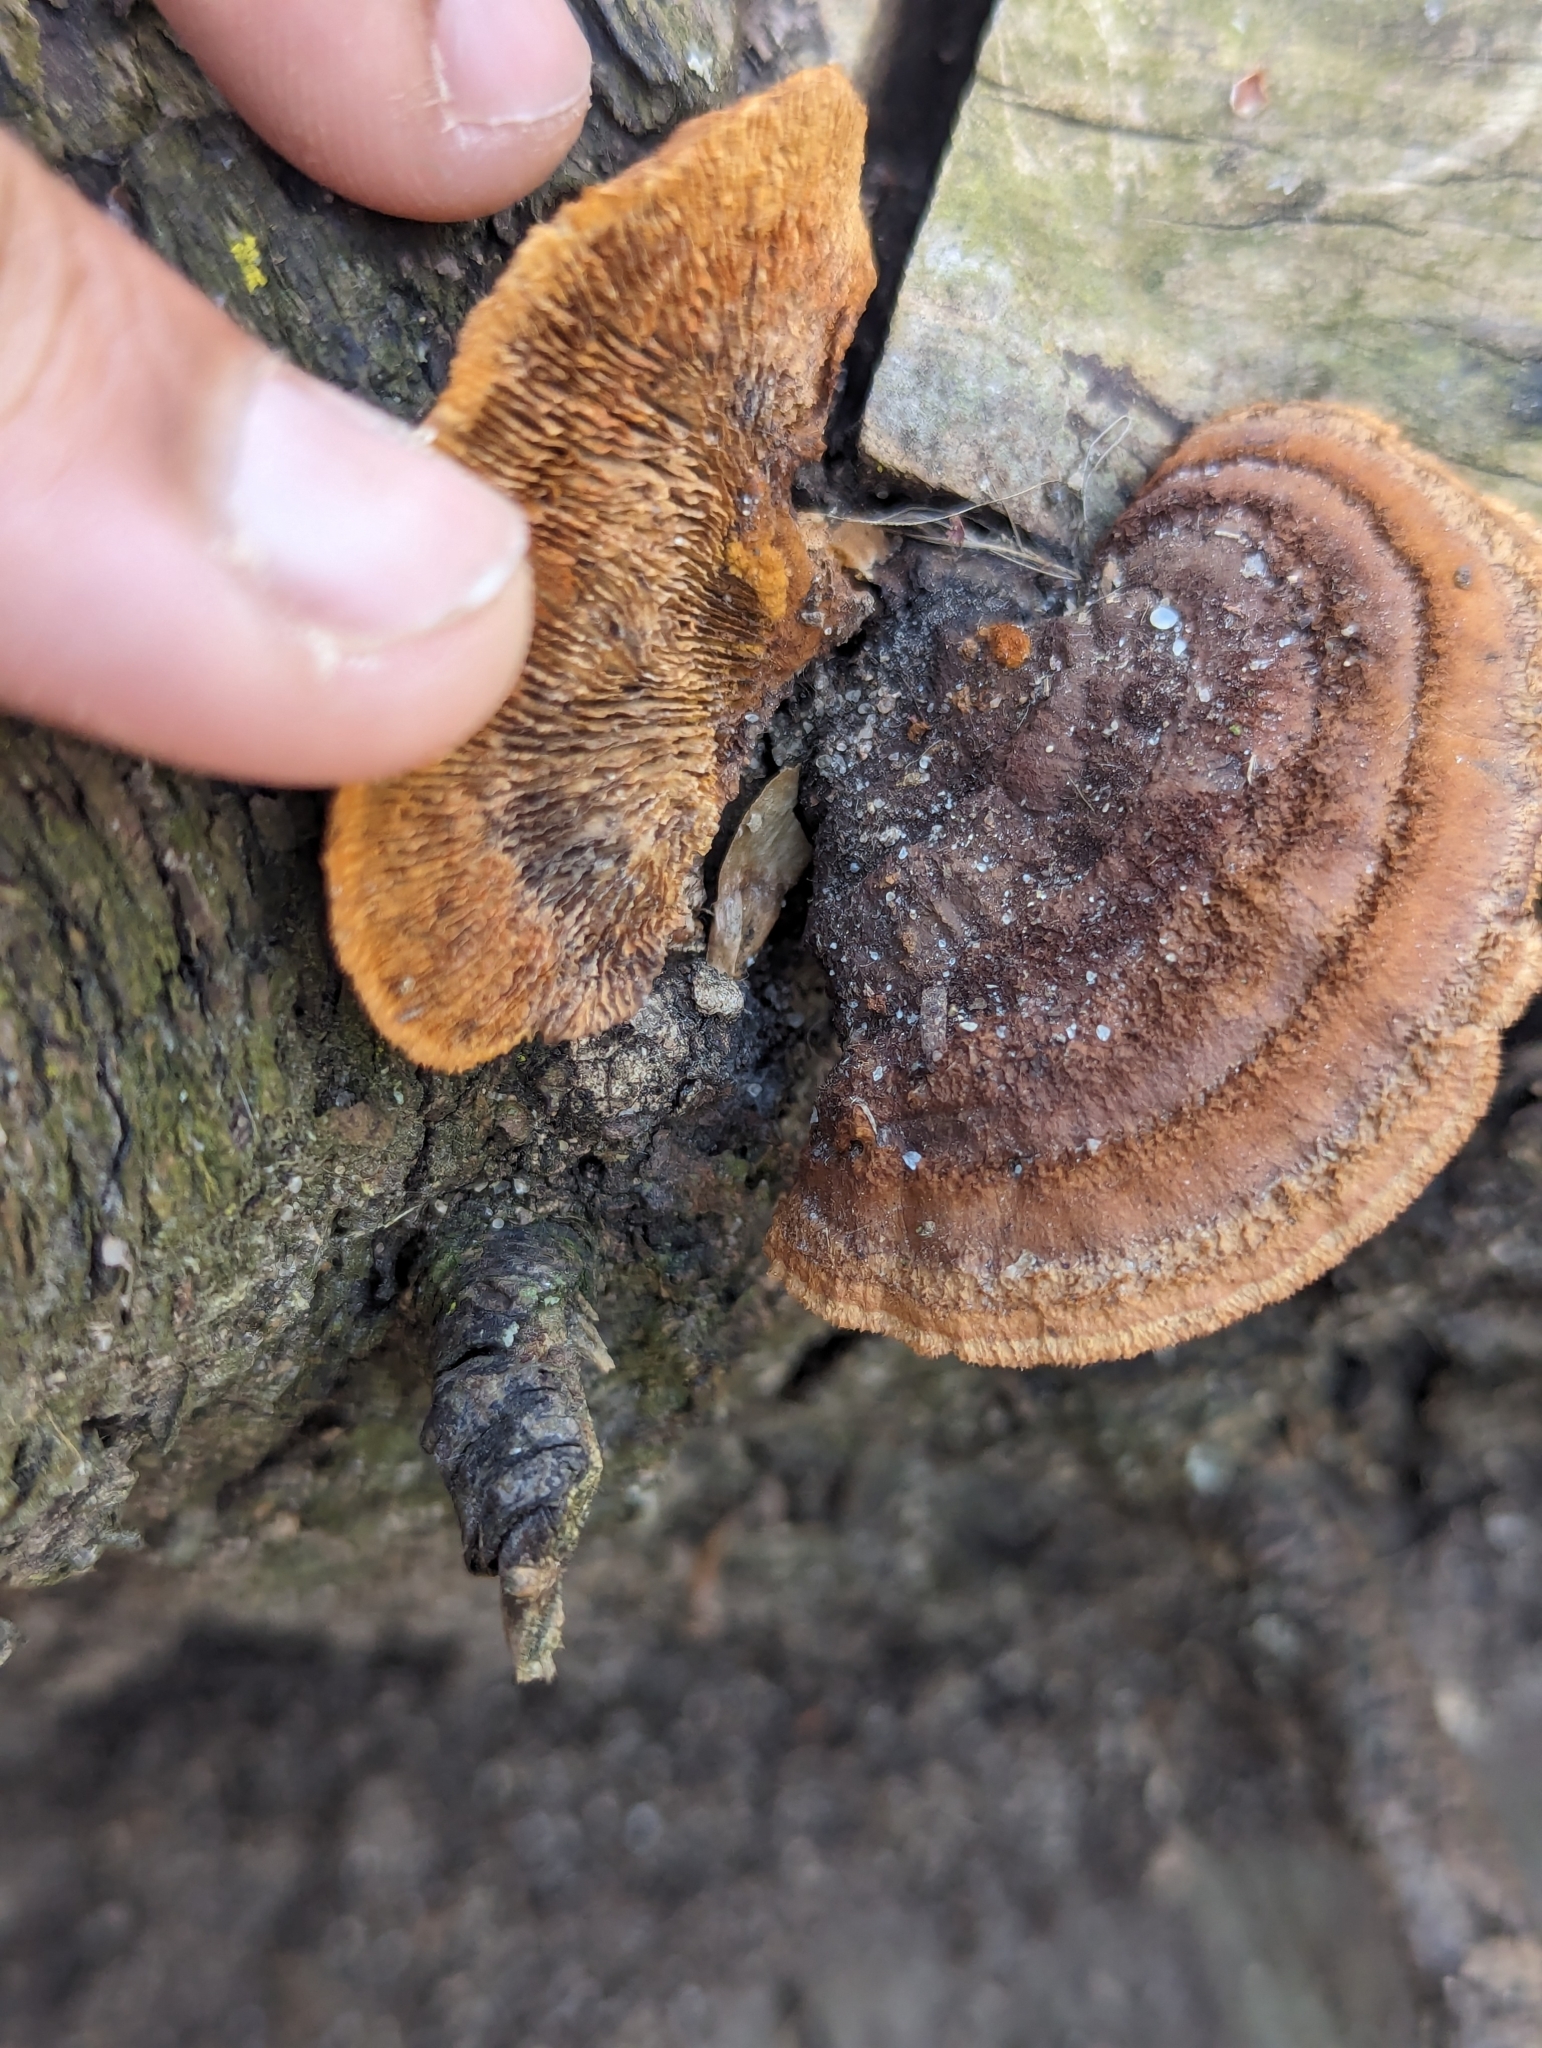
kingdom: Fungi
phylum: Basidiomycota
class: Agaricomycetes
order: Gloeophyllales
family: Gloeophyllaceae
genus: Gloeophyllum
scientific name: Gloeophyllum sepiarium
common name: Conifer mazegill
